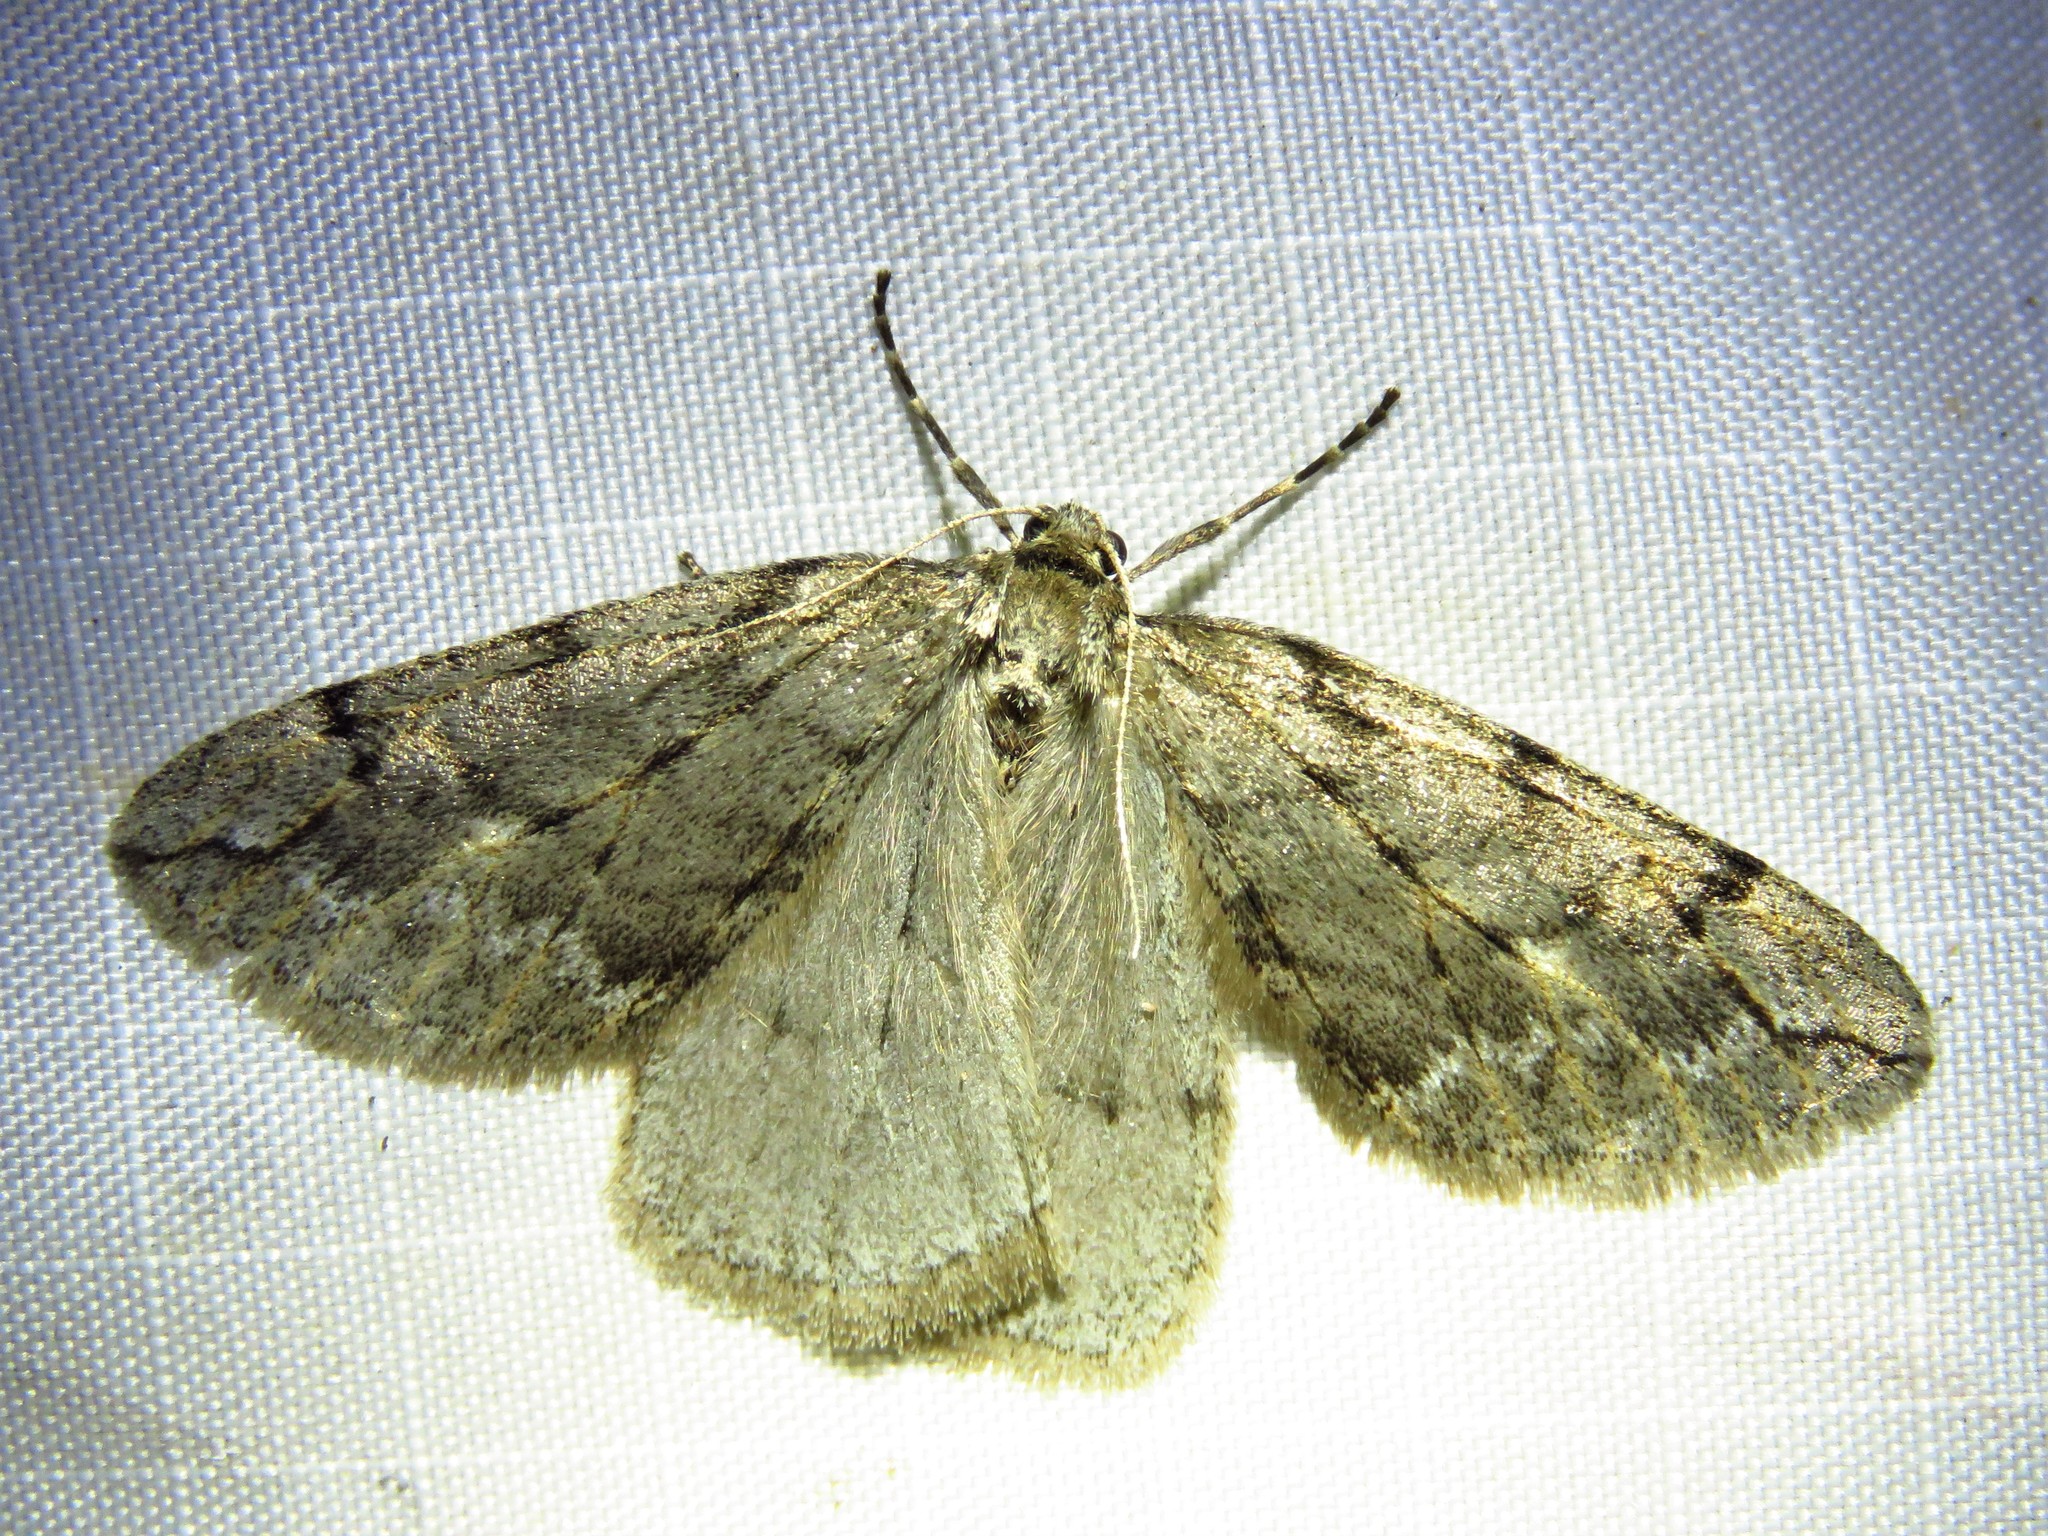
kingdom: Animalia
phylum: Arthropoda
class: Insecta
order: Lepidoptera
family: Geometridae
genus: Paleacrita
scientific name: Paleacrita vernata
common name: Spring cankerworm
